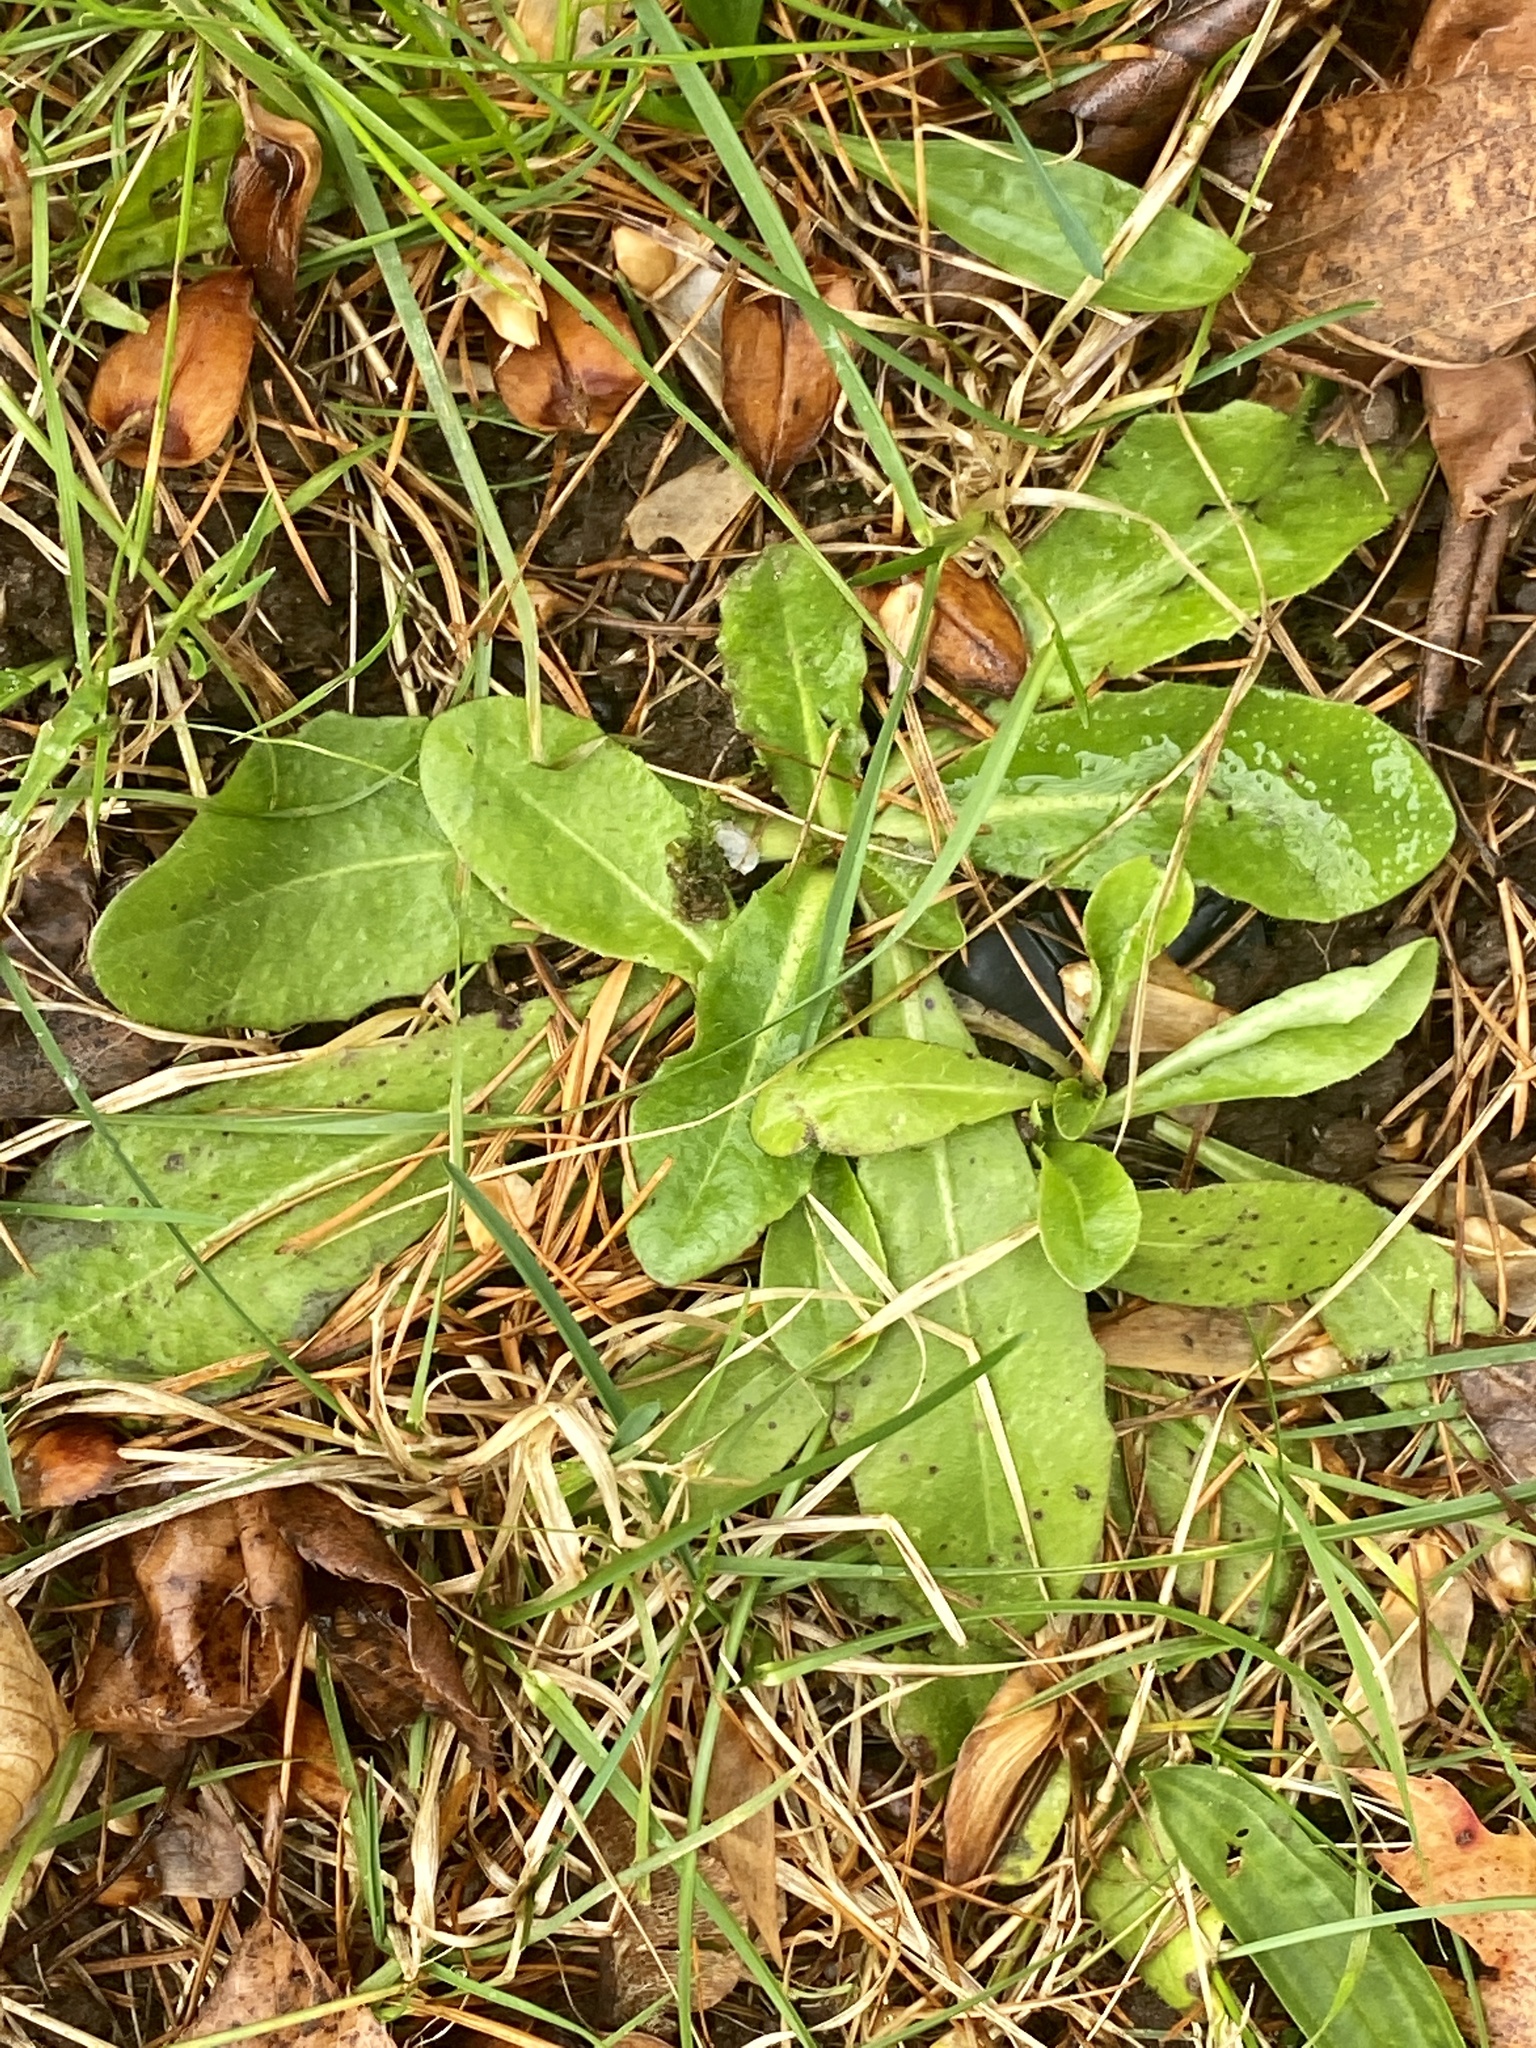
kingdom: Plantae
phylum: Tracheophyta
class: Magnoliopsida
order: Asterales
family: Asteraceae
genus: Hypochaeris
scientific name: Hypochaeris radicata
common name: Flatweed
